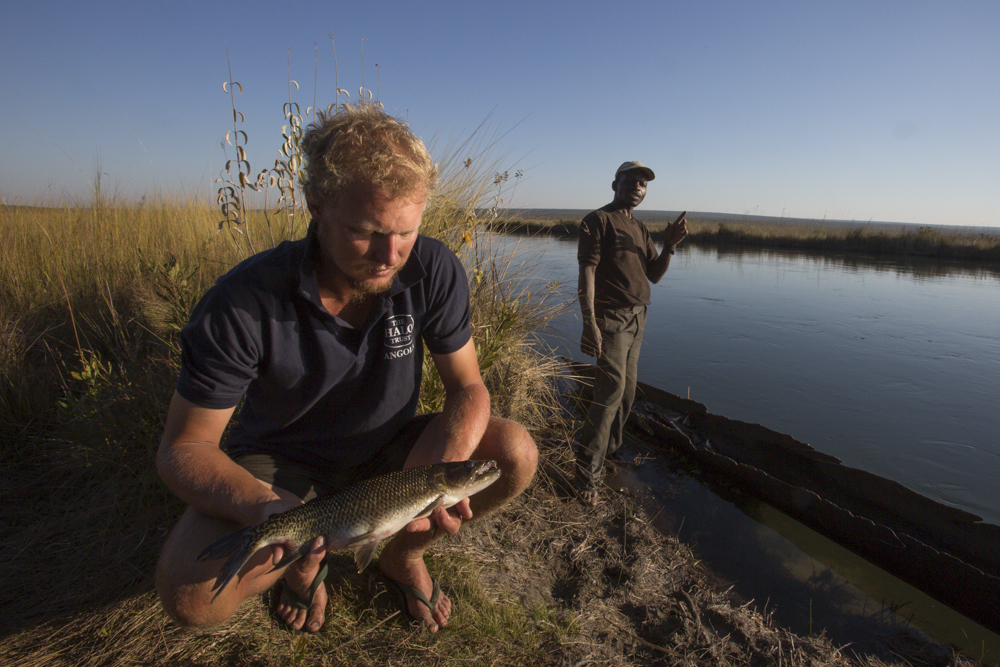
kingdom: Animalia
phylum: Chordata
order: Characiformes
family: Hepsetidae
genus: Hepsetus
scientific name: Hepsetus cuvieri
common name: African pike
